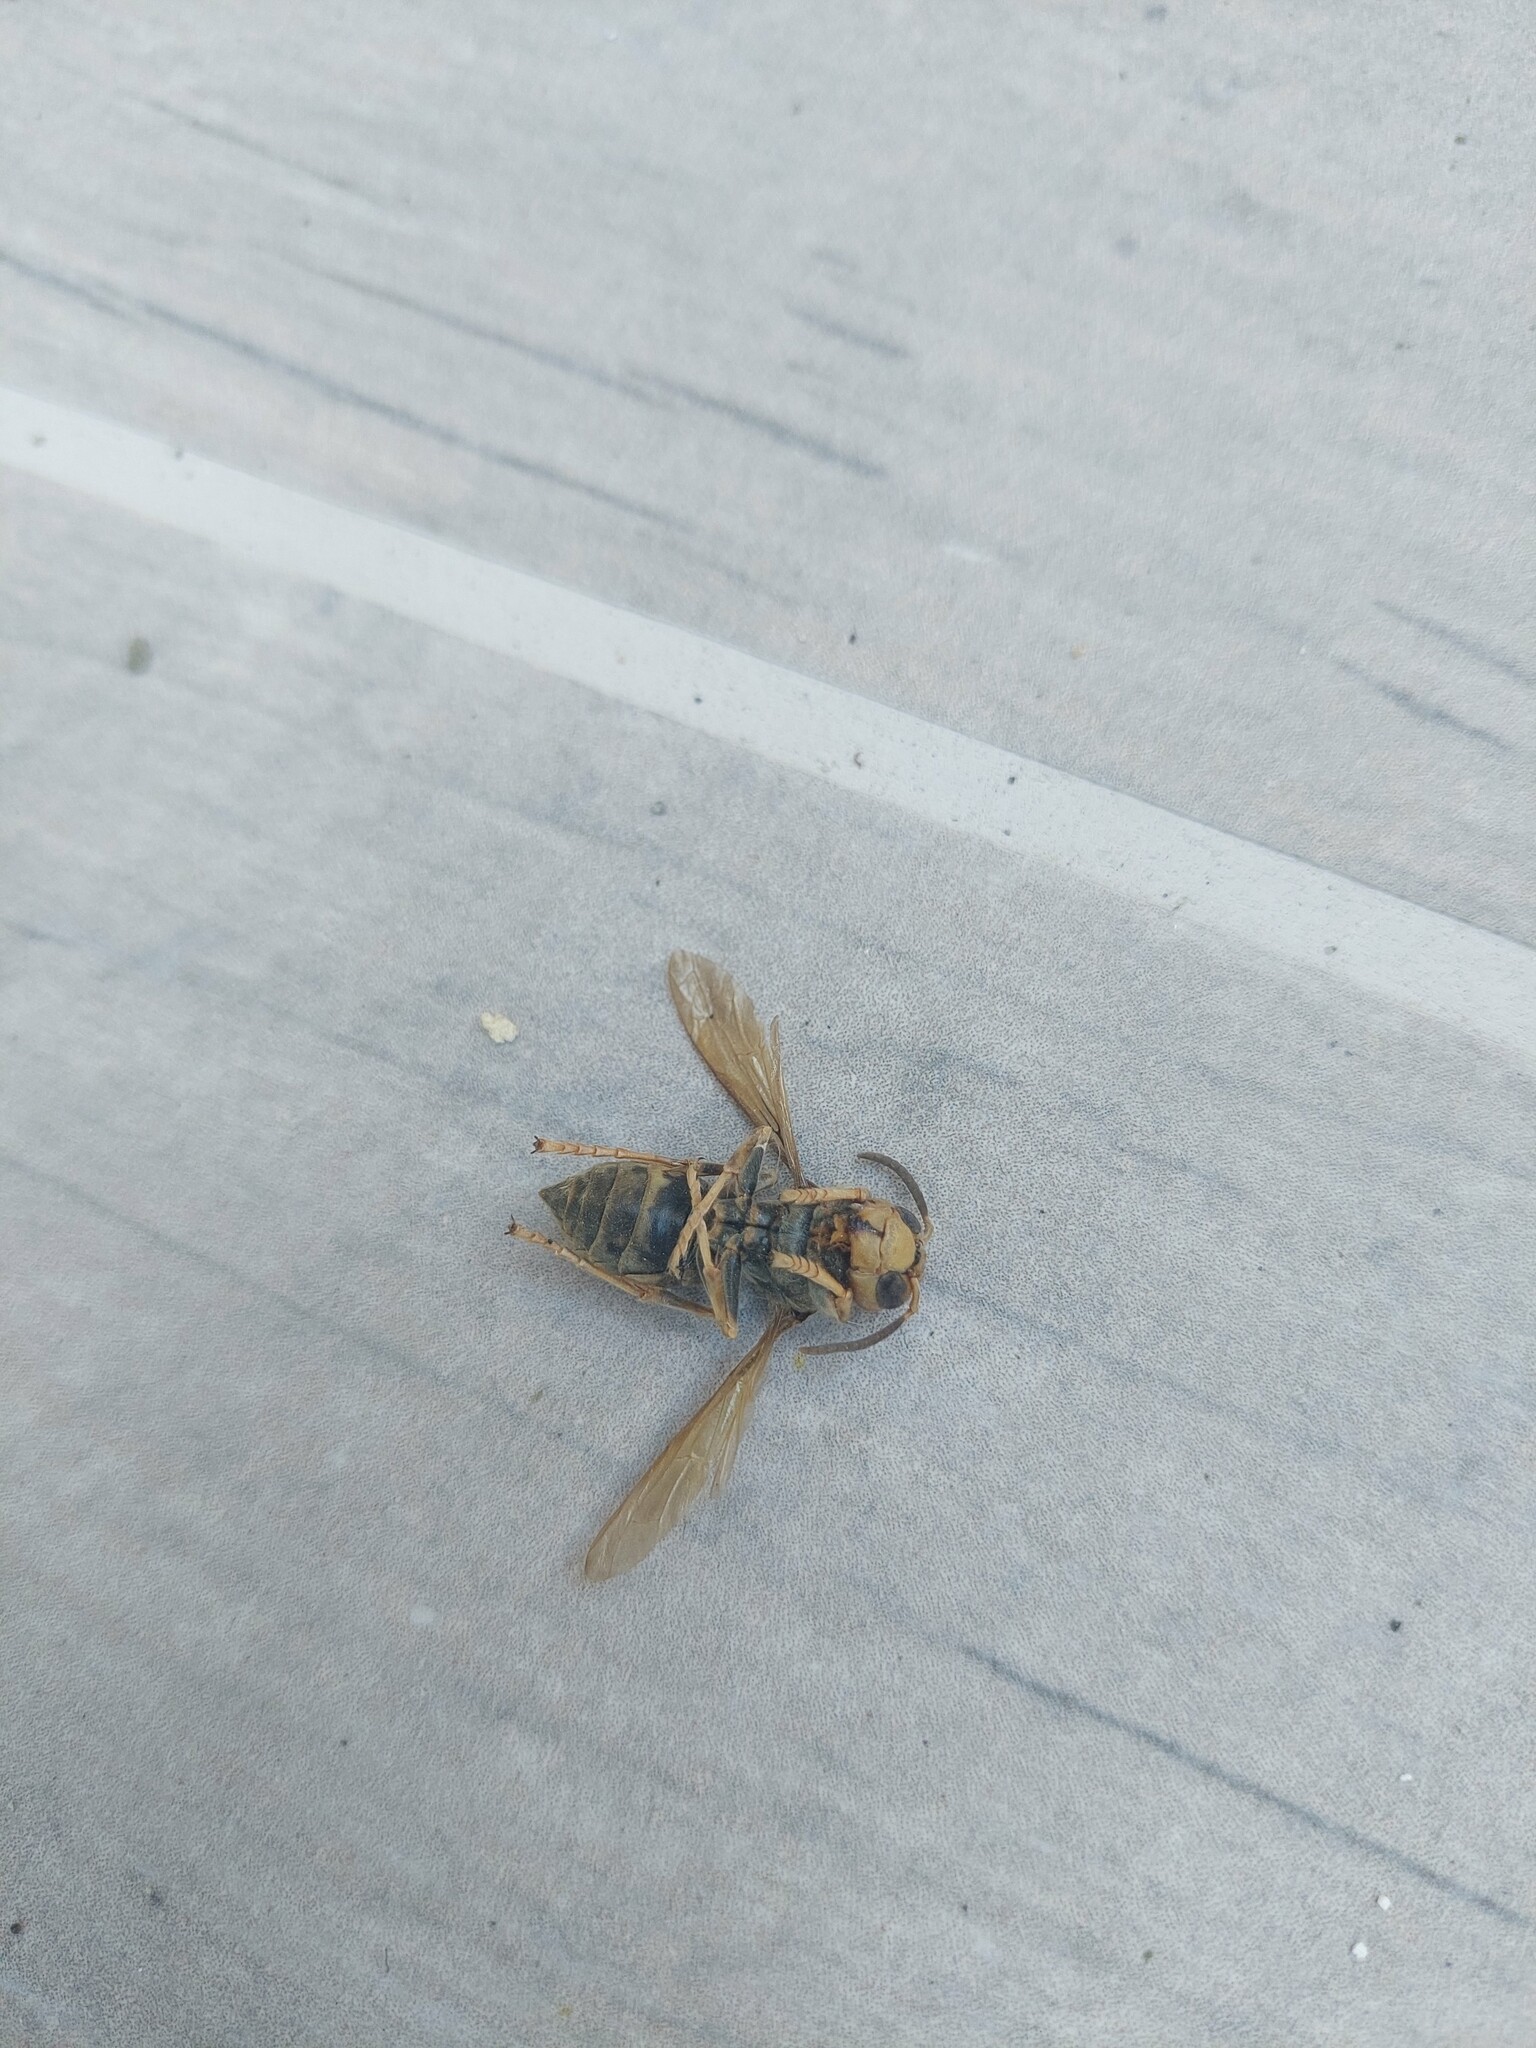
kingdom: Animalia
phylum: Arthropoda
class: Insecta
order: Hymenoptera
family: Vespidae
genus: Vespa
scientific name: Vespa crabro
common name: Hornet
